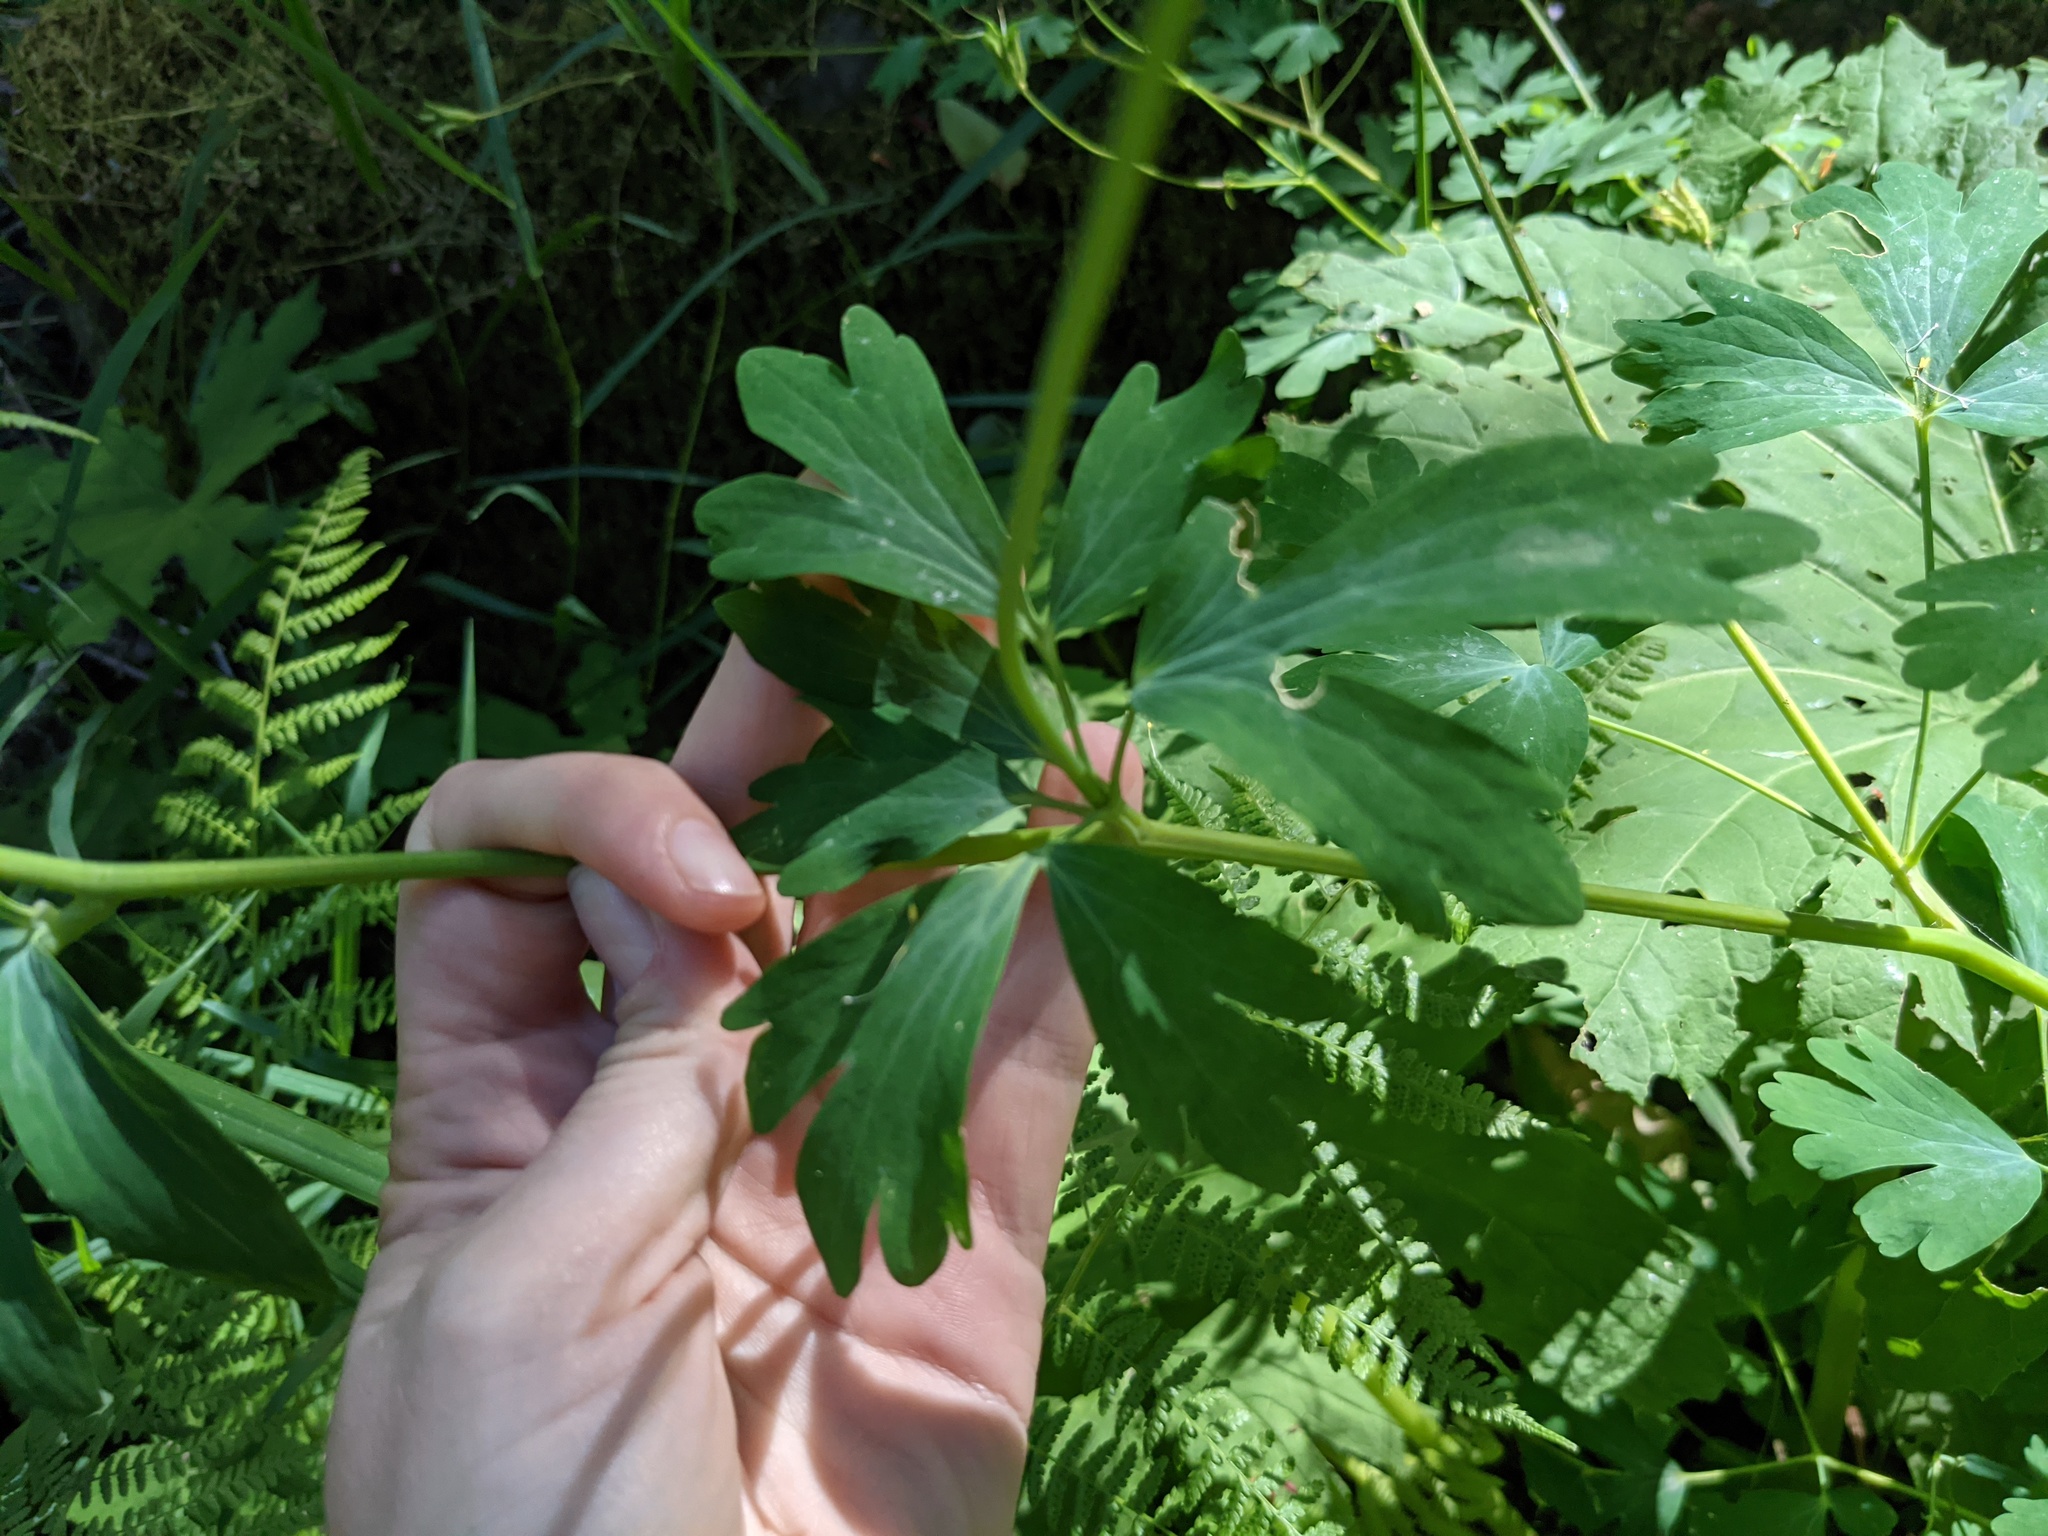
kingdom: Plantae
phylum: Tracheophyta
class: Magnoliopsida
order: Ranunculales
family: Ranunculaceae
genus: Aquilegia
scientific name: Aquilegia formosa
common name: Sitka columbine
